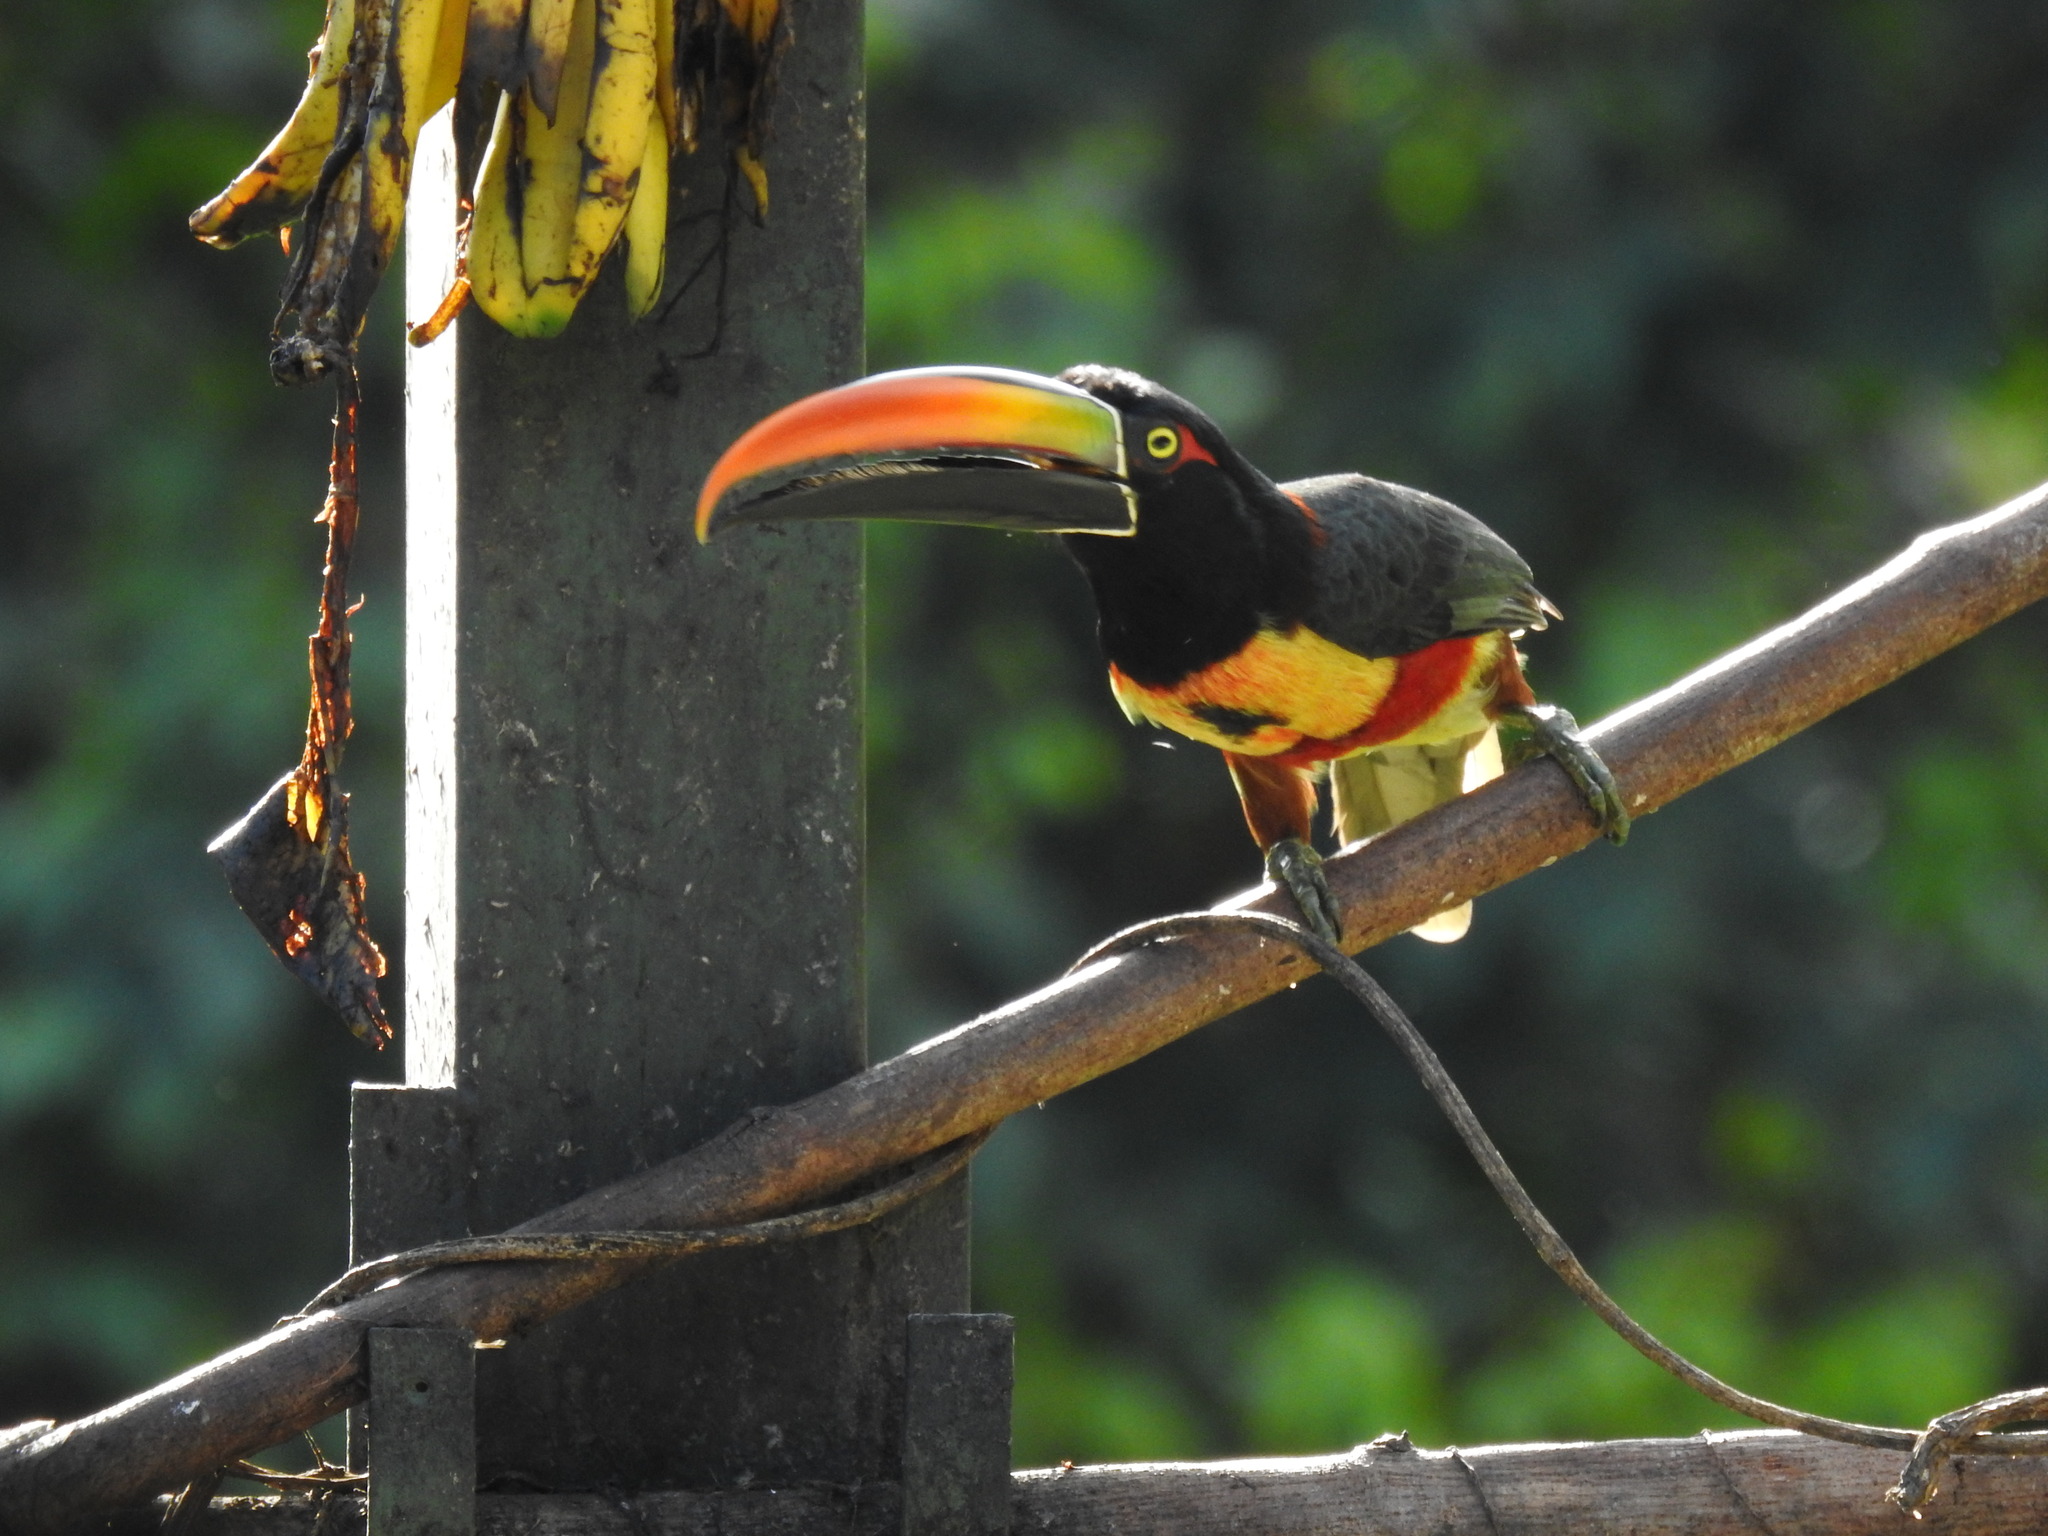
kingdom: Animalia
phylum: Chordata
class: Aves
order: Piciformes
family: Ramphastidae
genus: Pteroglossus
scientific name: Pteroglossus frantzii
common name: Fiery-billed aracari
